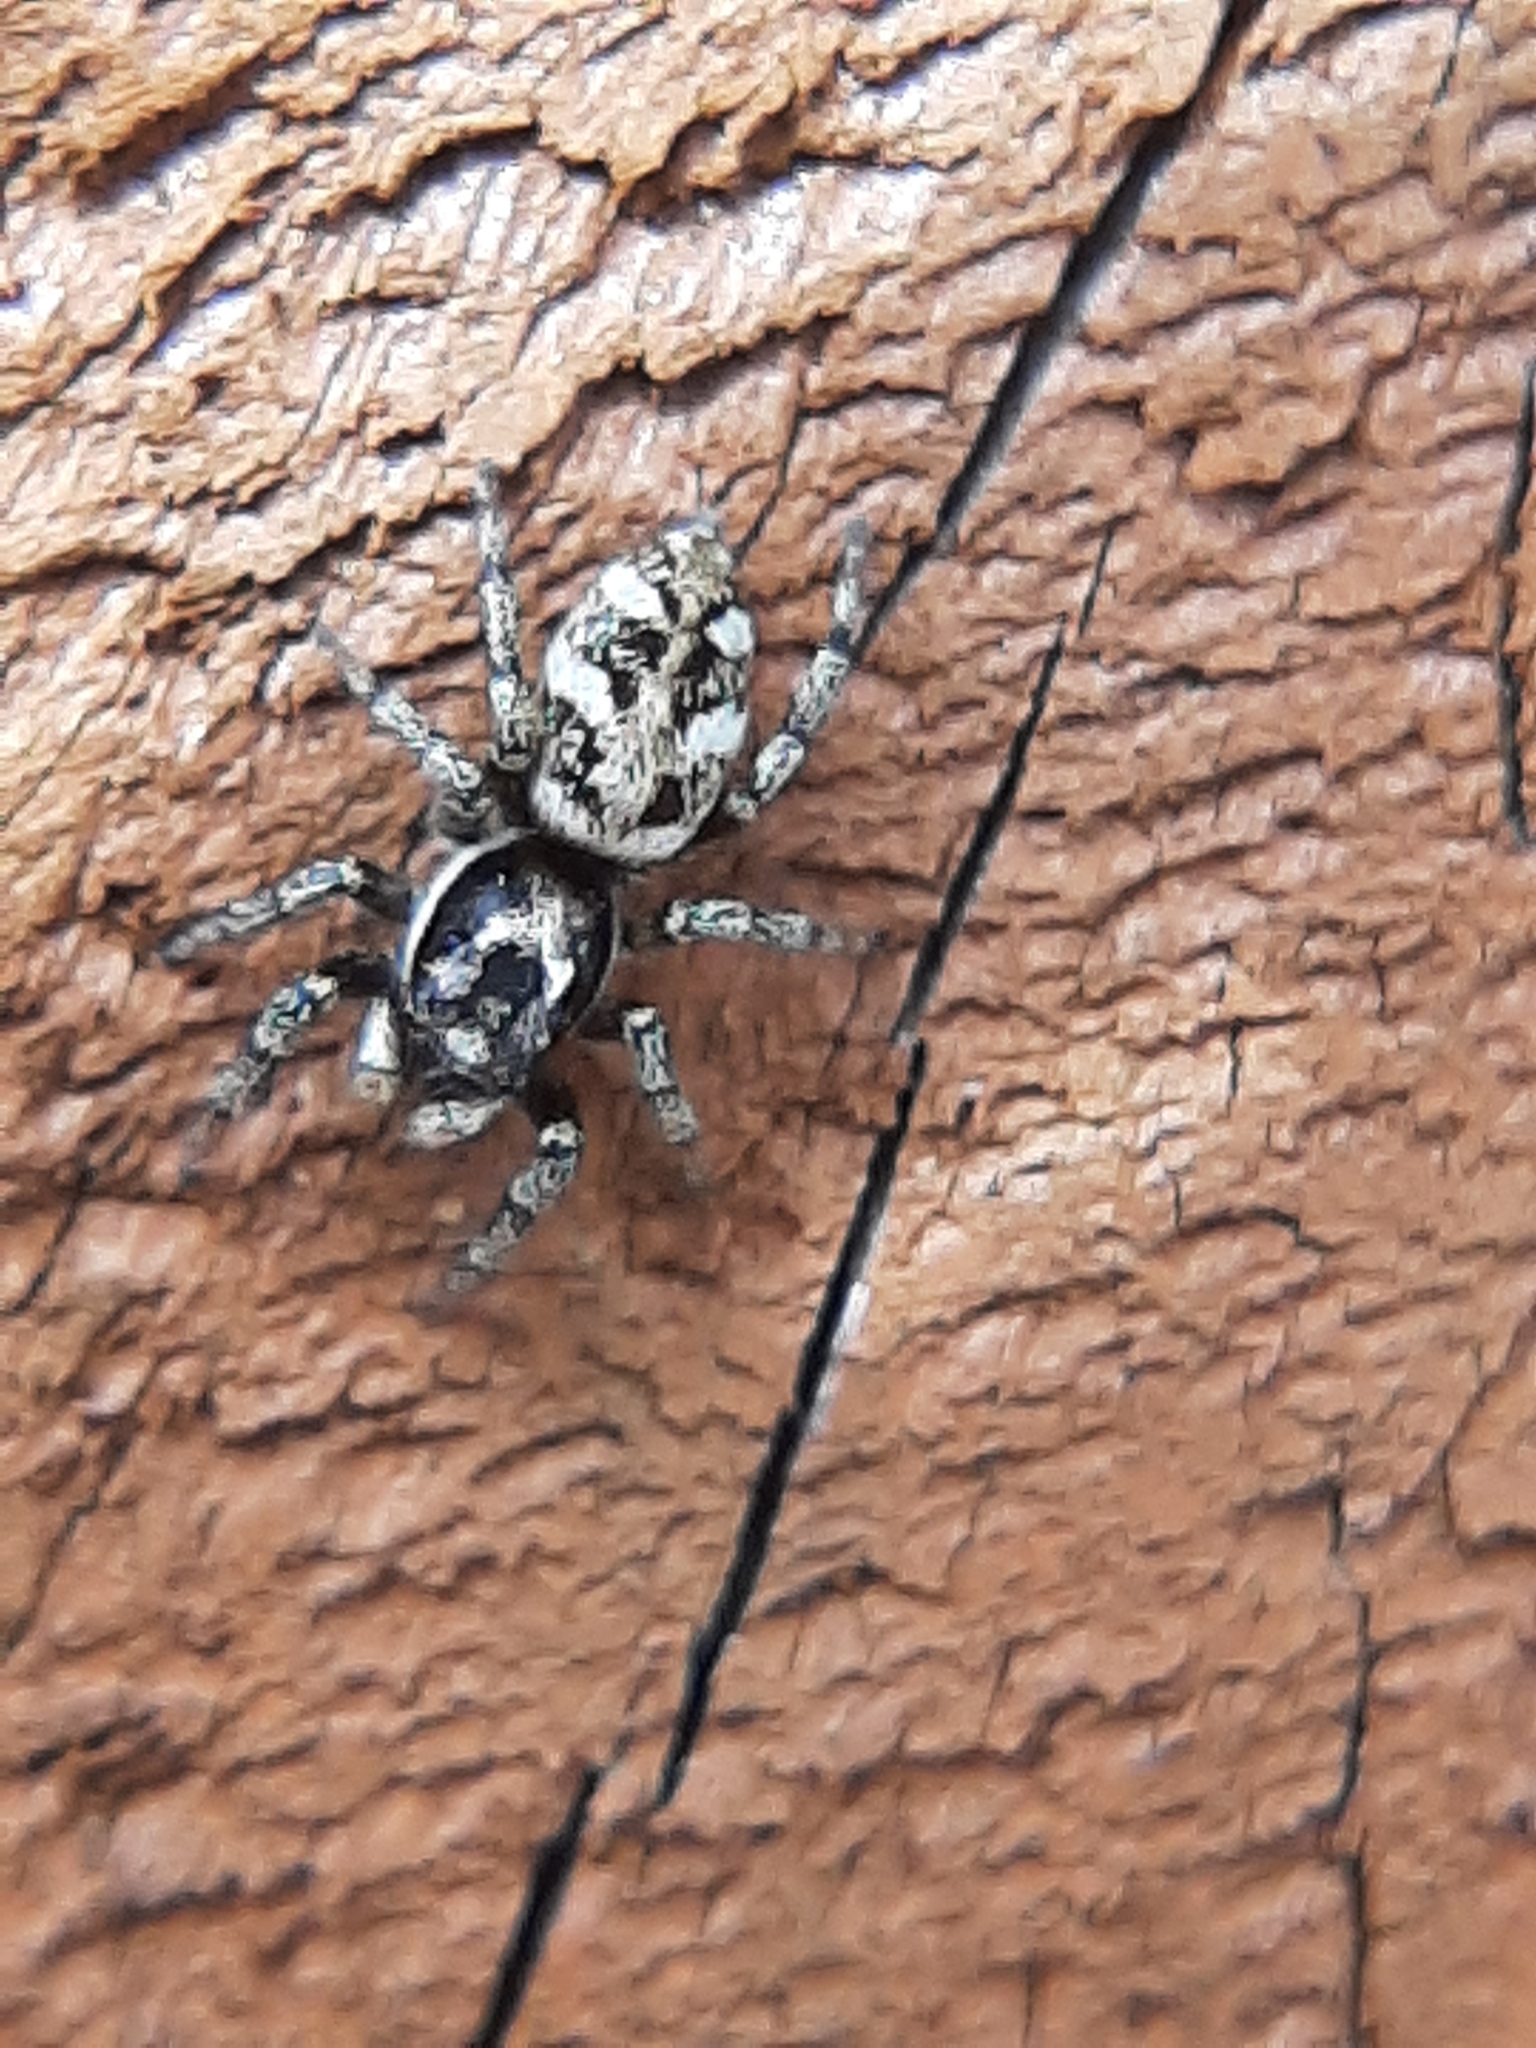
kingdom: Animalia
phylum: Arthropoda
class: Arachnida
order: Araneae
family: Salticidae
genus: Salticus
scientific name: Salticus scenicus
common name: Zebra jumper
